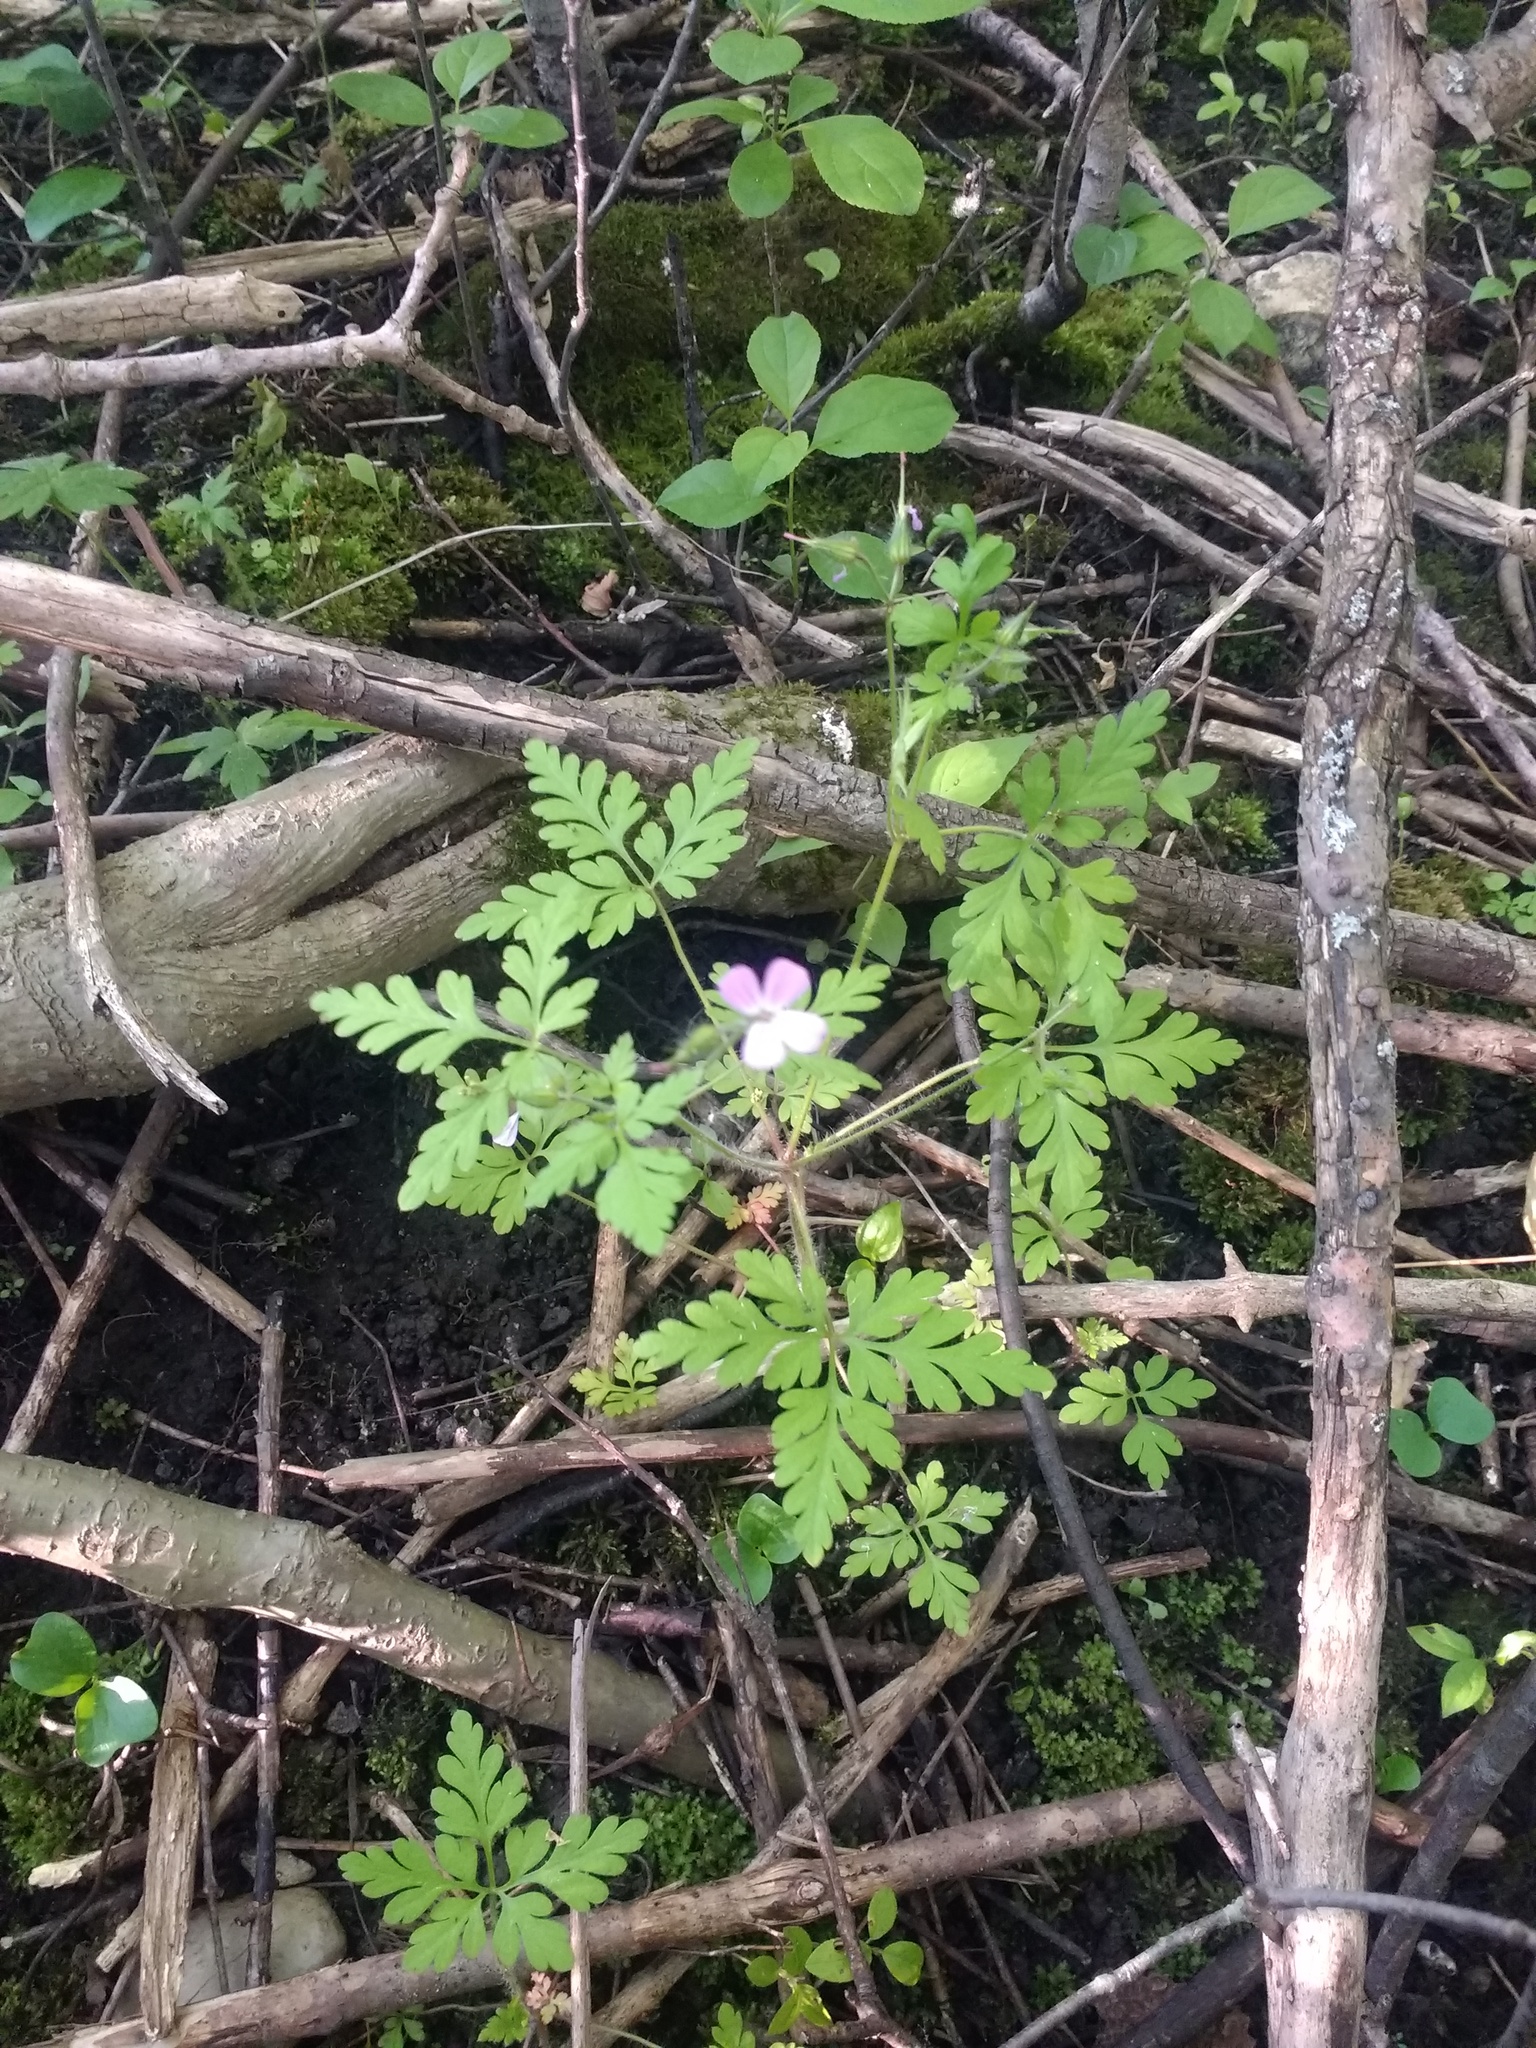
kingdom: Plantae
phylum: Tracheophyta
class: Magnoliopsida
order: Geraniales
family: Geraniaceae
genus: Geranium
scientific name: Geranium robertianum
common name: Herb-robert
